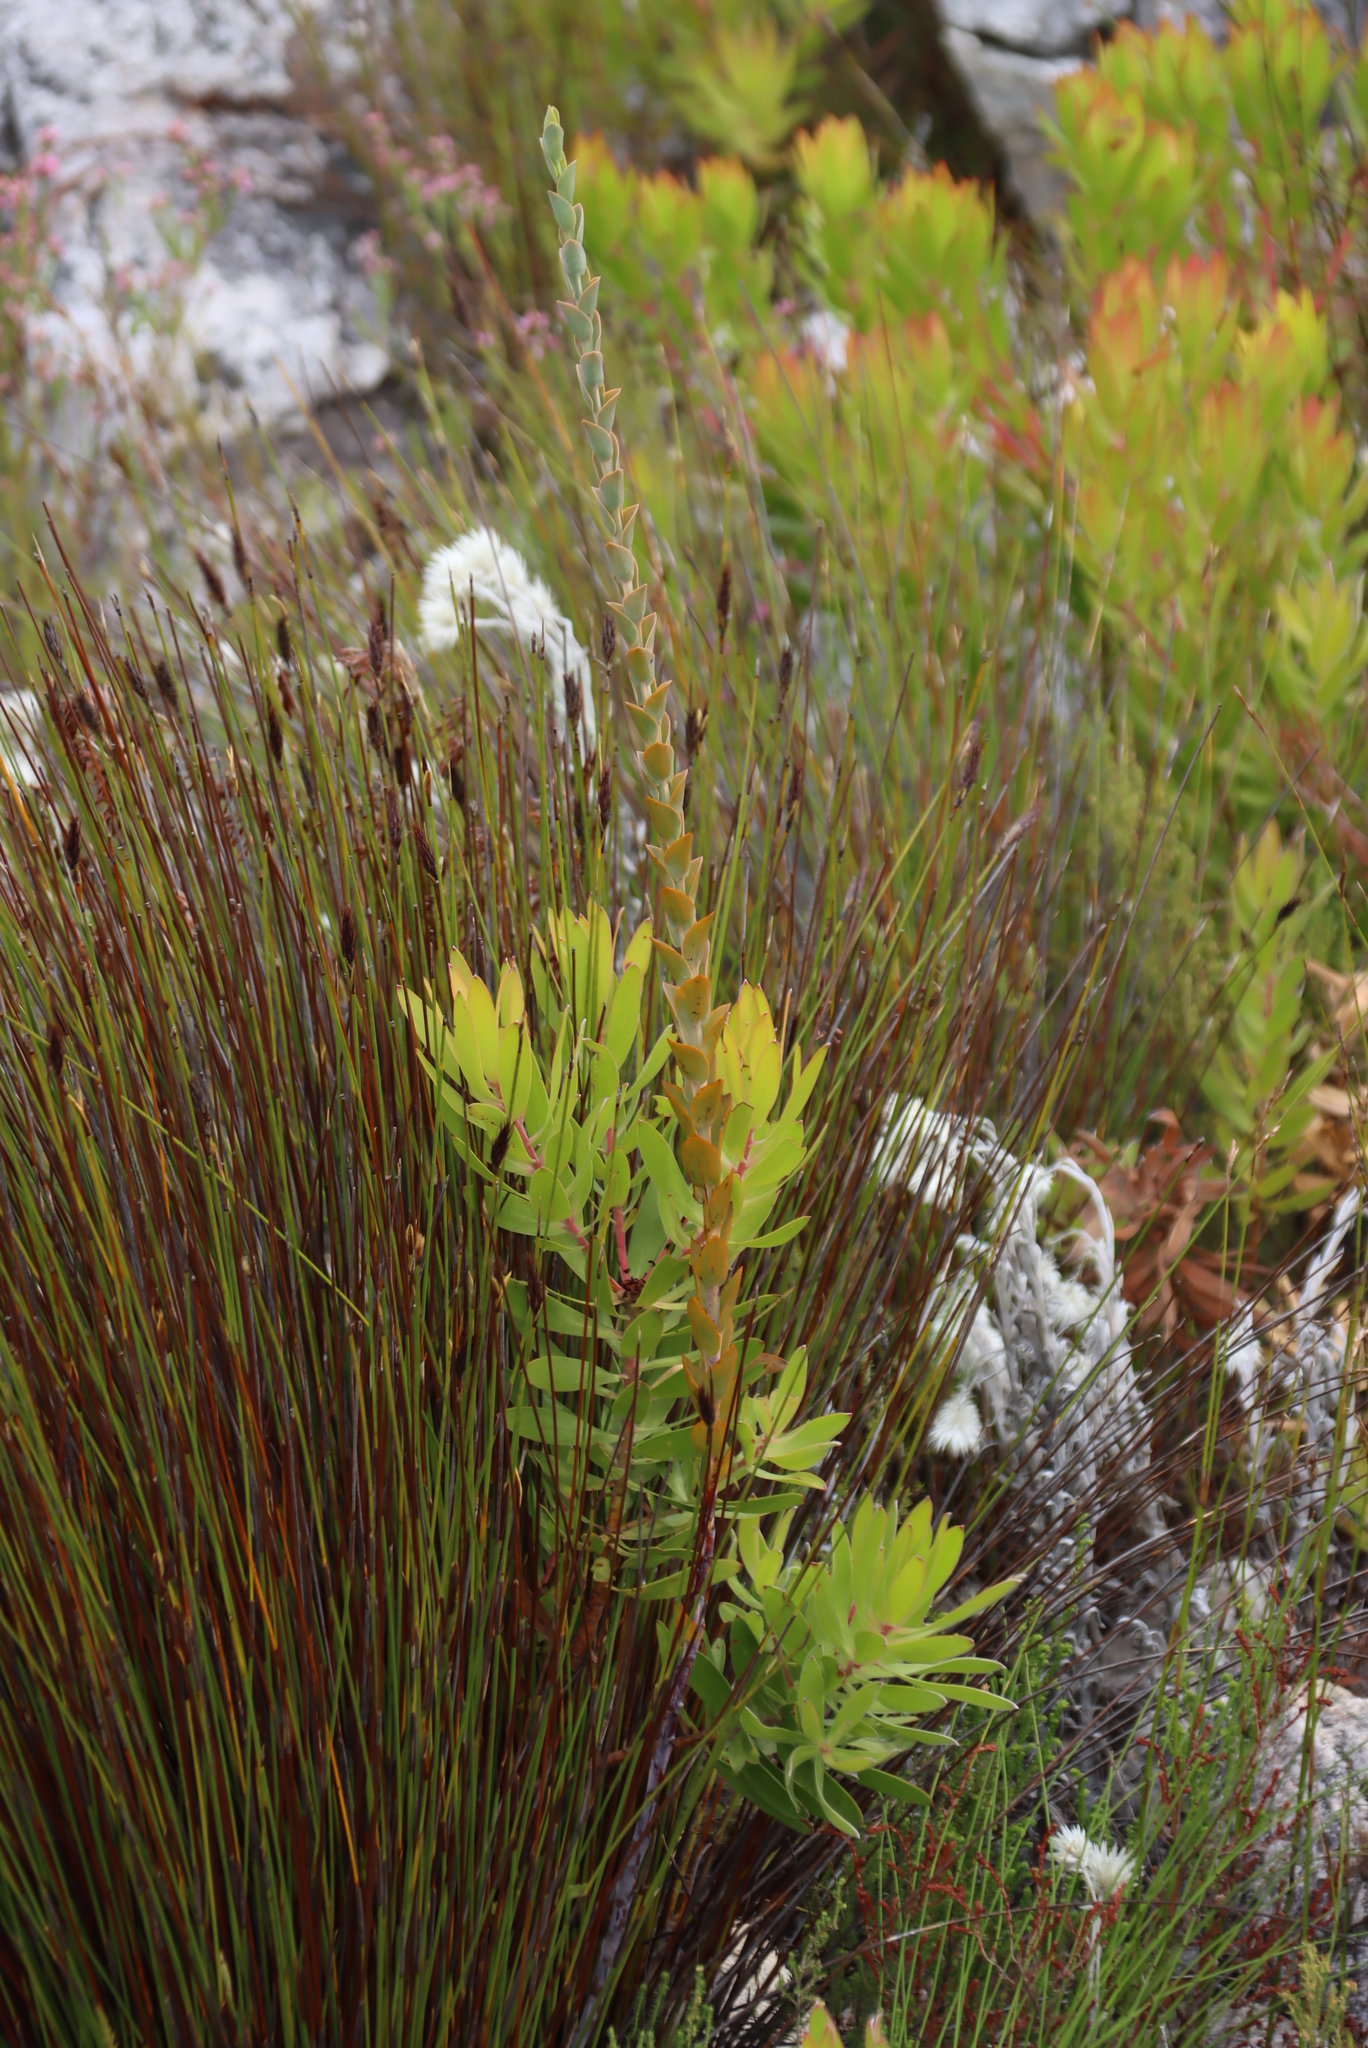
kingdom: Plantae
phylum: Tracheophyta
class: Magnoliopsida
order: Santalales
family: Thesiaceae
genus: Thesium
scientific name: Thesium euphorbioides
